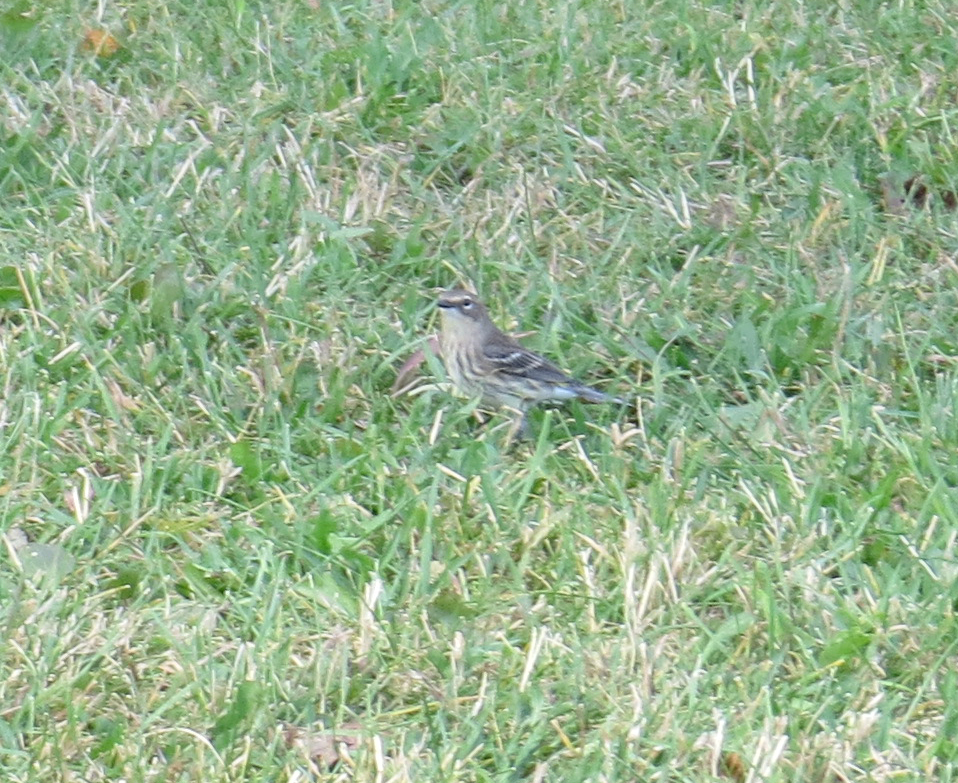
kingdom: Animalia
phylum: Chordata
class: Aves
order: Passeriformes
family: Parulidae
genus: Setophaga
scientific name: Setophaga coronata
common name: Myrtle warbler
